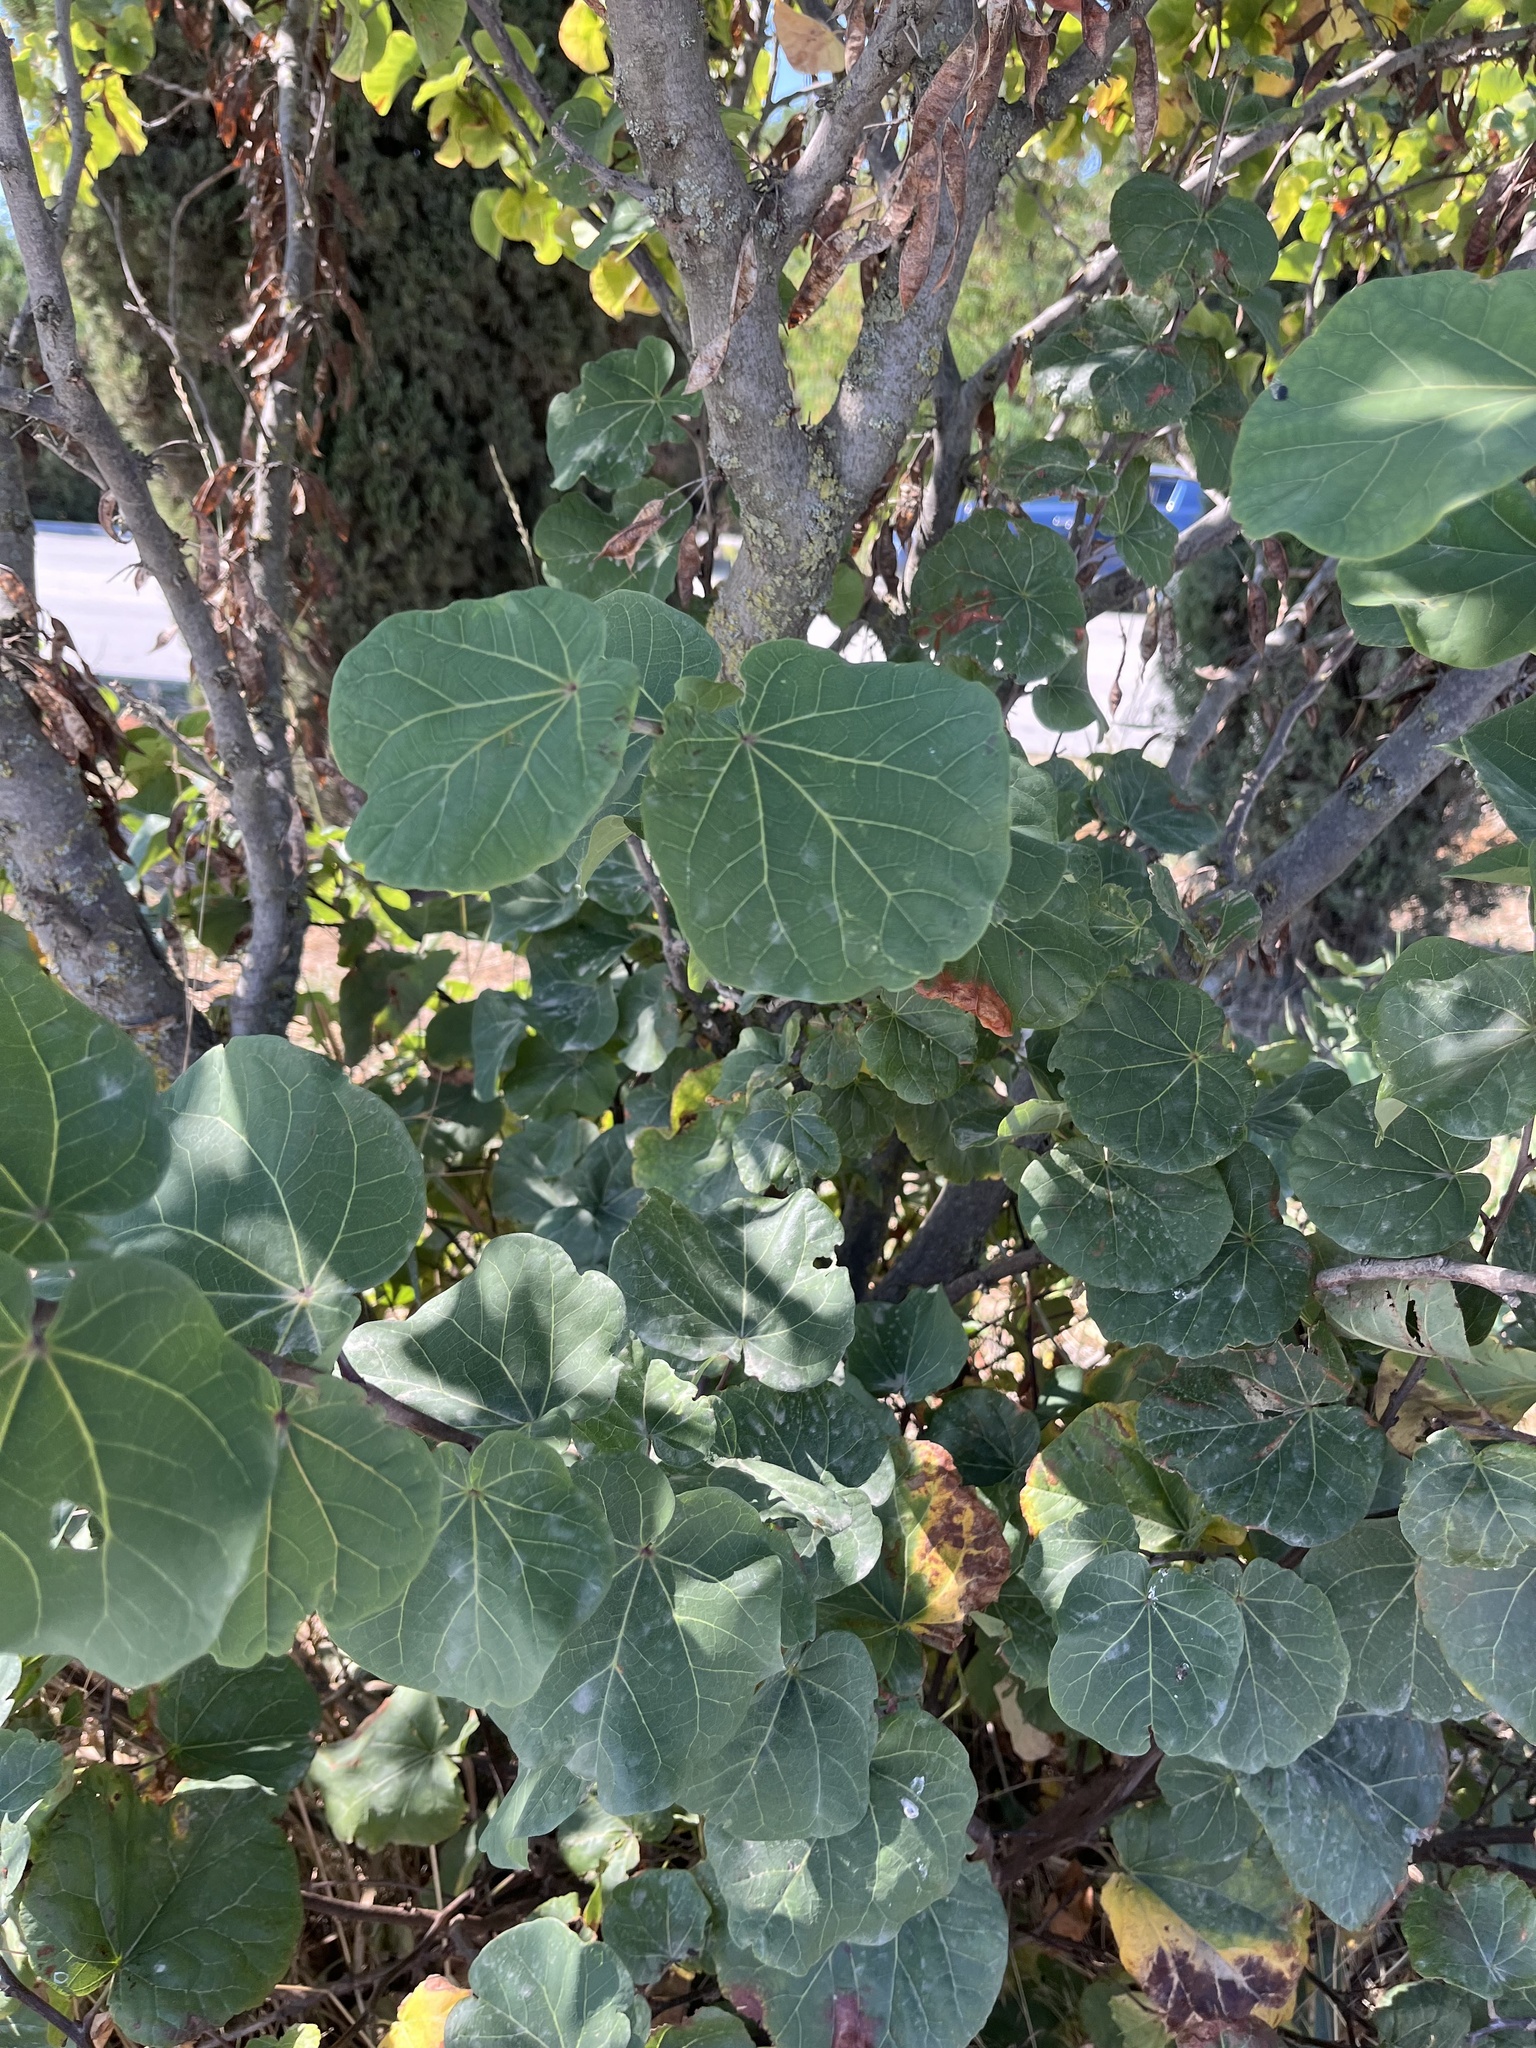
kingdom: Plantae
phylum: Tracheophyta
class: Magnoliopsida
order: Fabales
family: Fabaceae
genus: Cercis
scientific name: Cercis siliquastrum
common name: Judas tree
